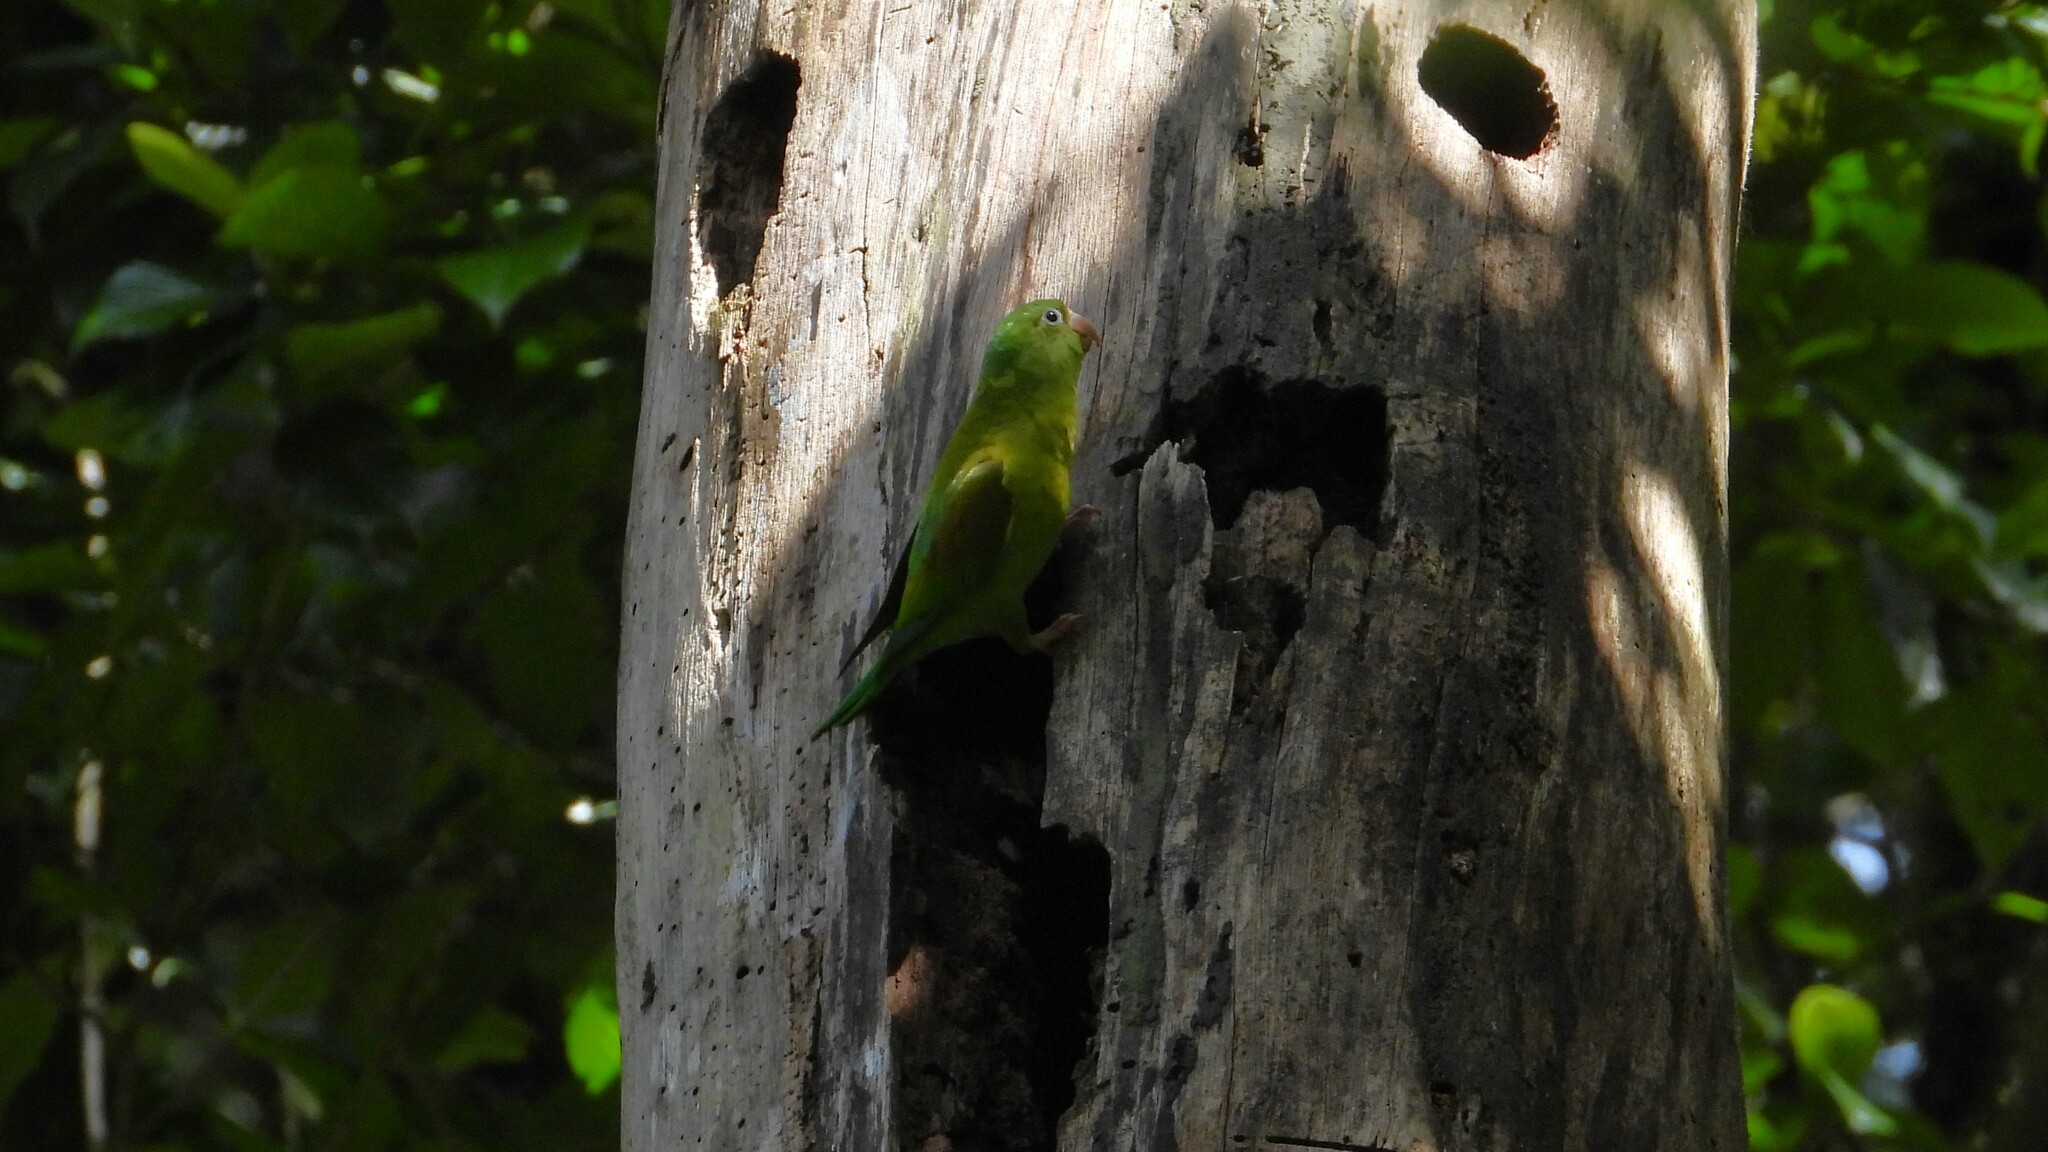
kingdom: Animalia
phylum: Chordata
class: Aves
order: Psittaciformes
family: Psittacidae
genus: Brotogeris
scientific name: Brotogeris jugularis
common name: Orange-chinned parakeet
